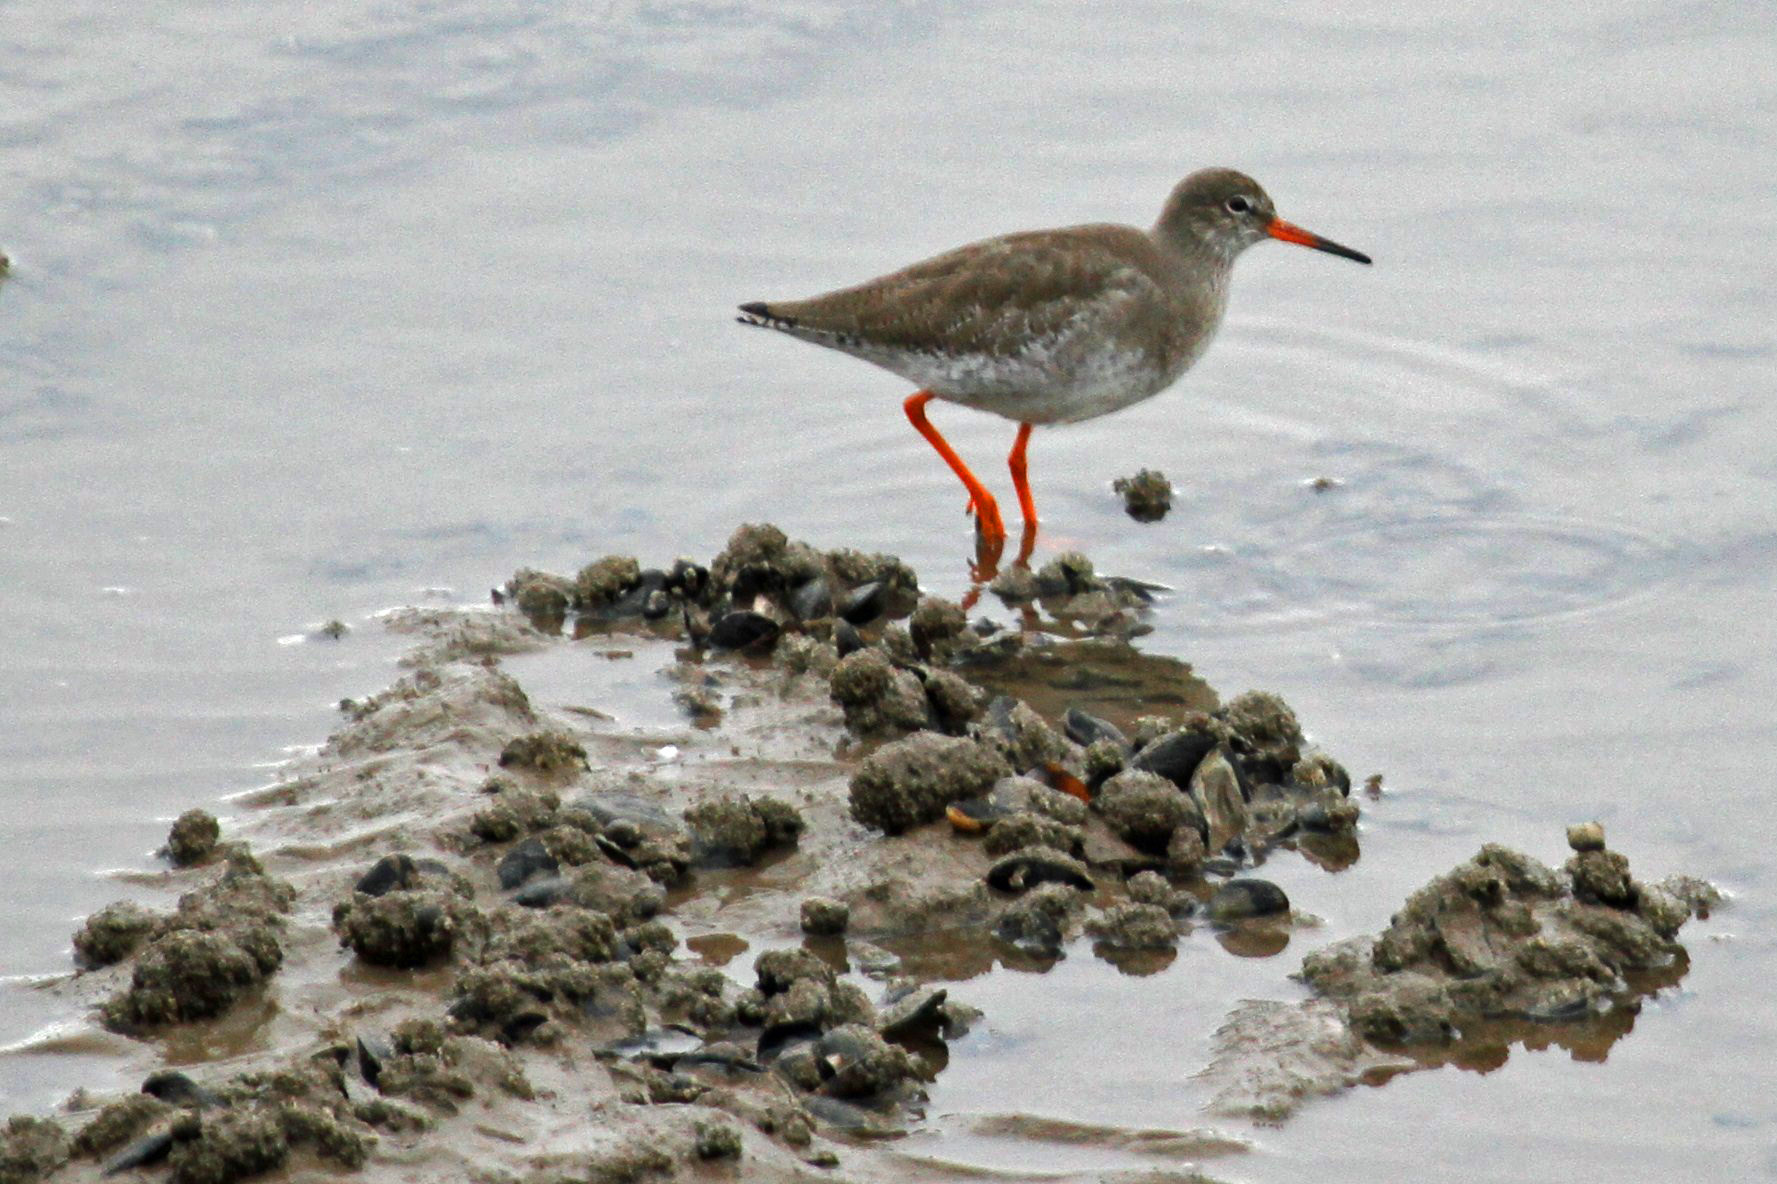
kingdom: Animalia
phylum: Chordata
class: Aves
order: Charadriiformes
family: Scolopacidae
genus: Tringa
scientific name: Tringa totanus
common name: Common redshank
